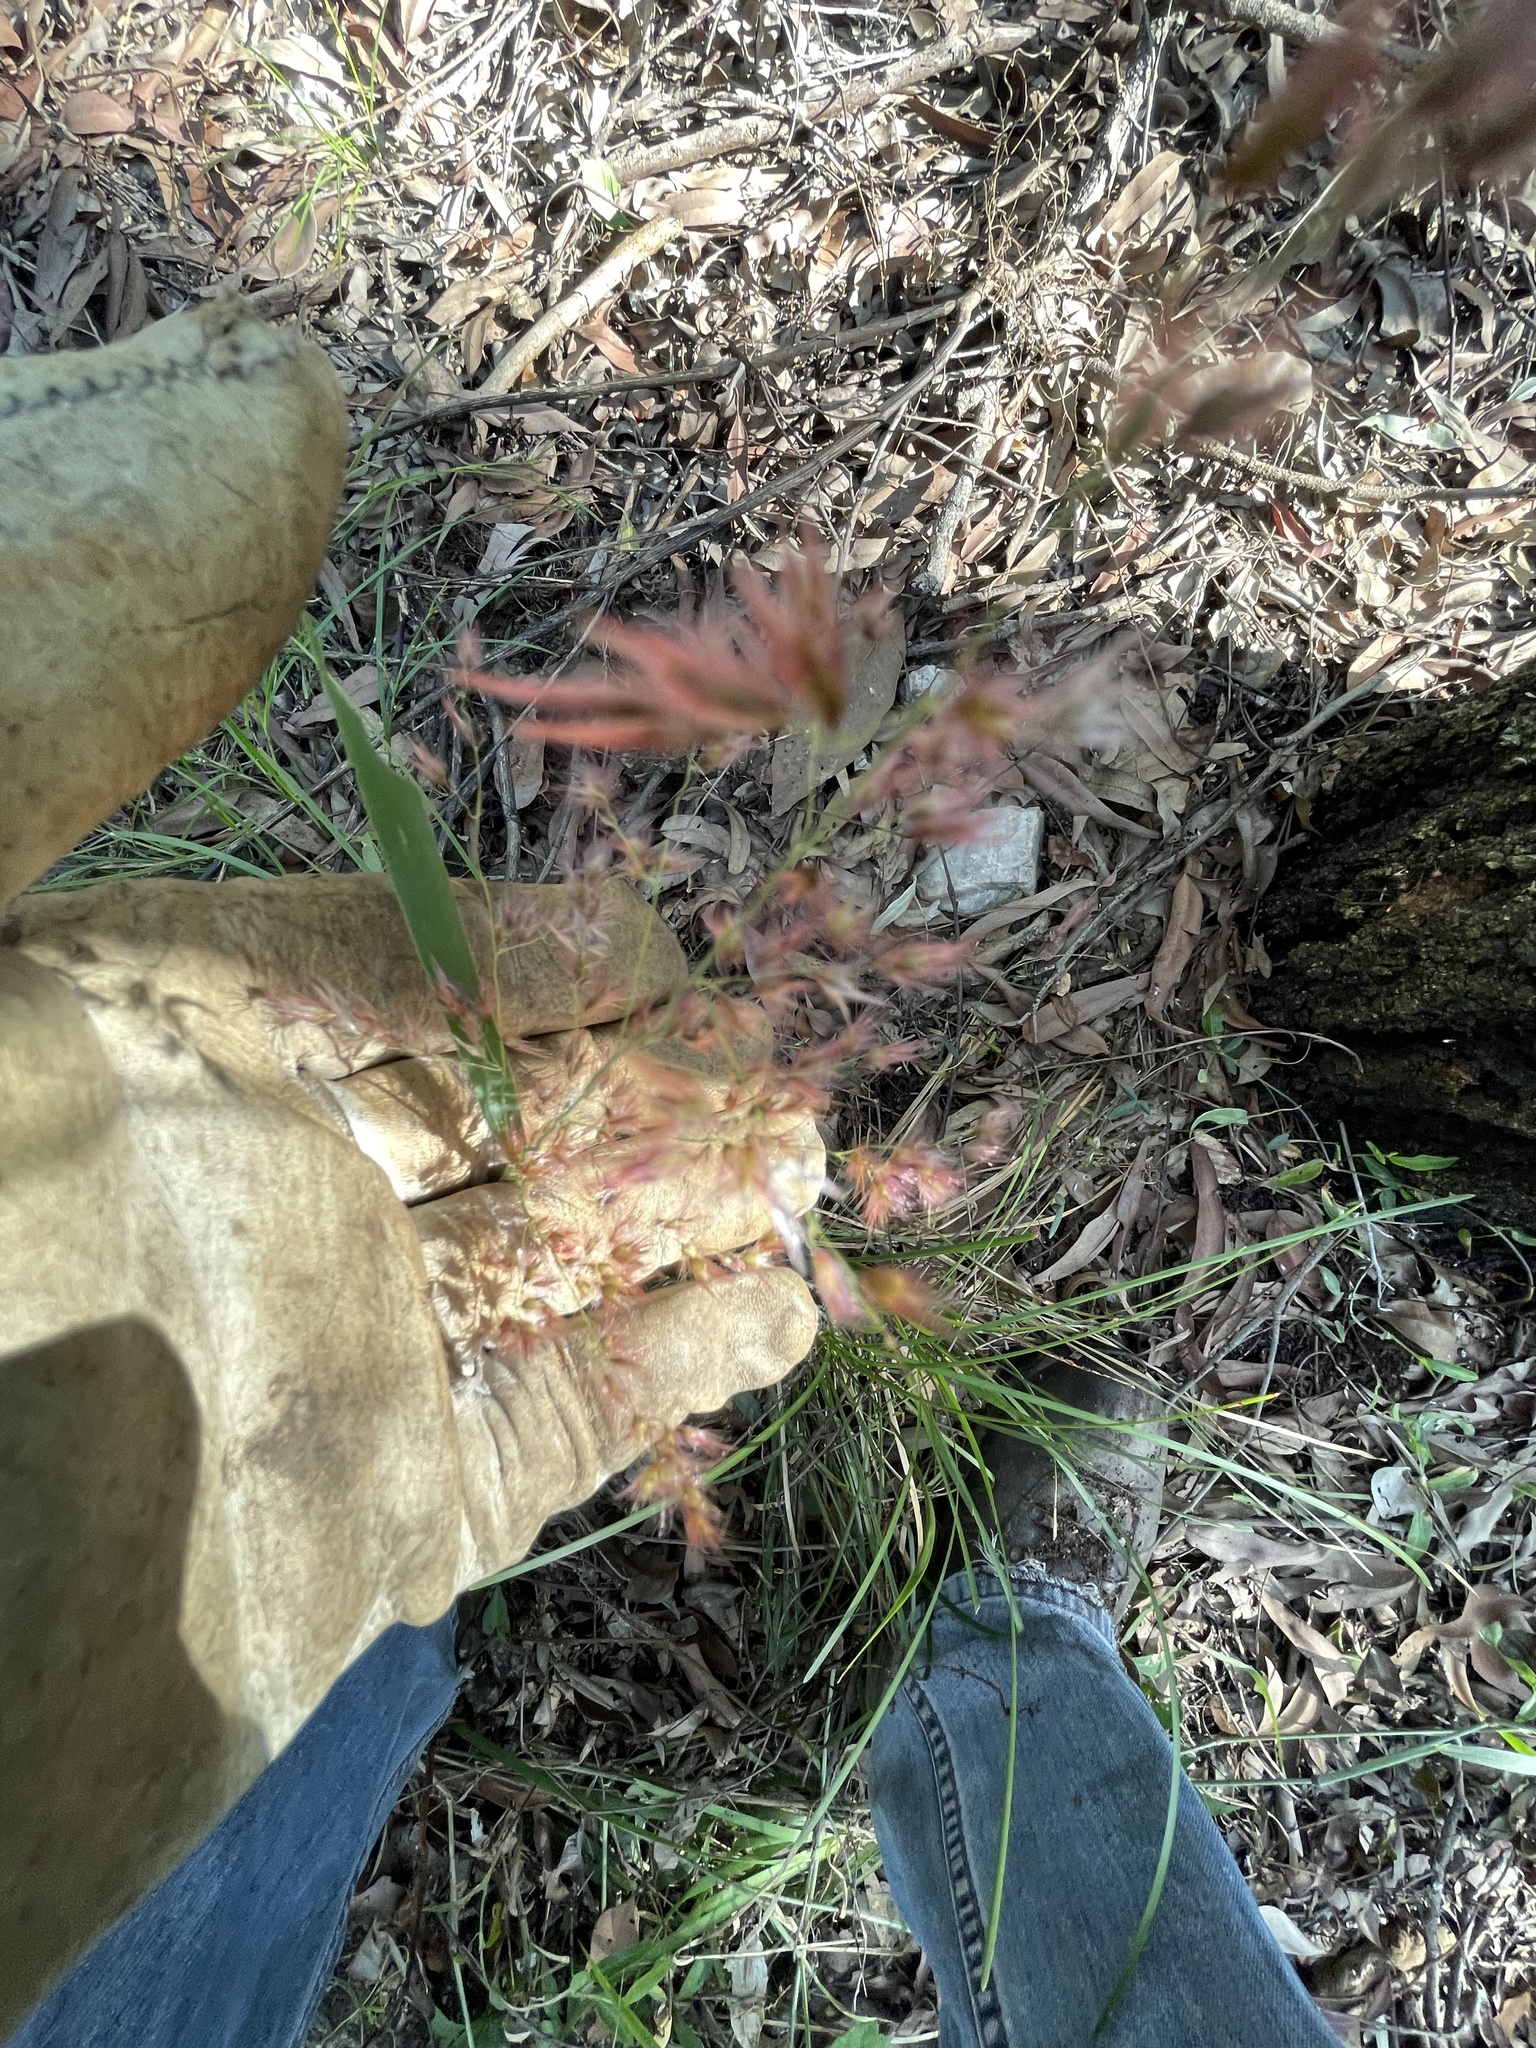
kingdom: Plantae
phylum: Tracheophyta
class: Liliopsida
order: Poales
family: Poaceae
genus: Melinis
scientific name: Melinis repens
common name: Rose natal grass
